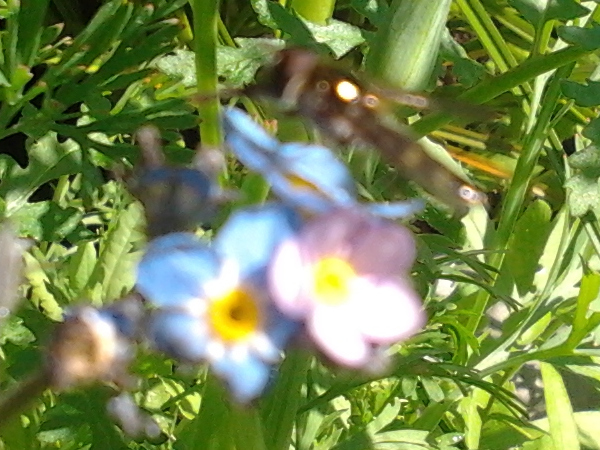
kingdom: Animalia
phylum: Arthropoda
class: Insecta
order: Diptera
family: Syrphidae
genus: Melangyna
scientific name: Melangyna novaezelandiae
